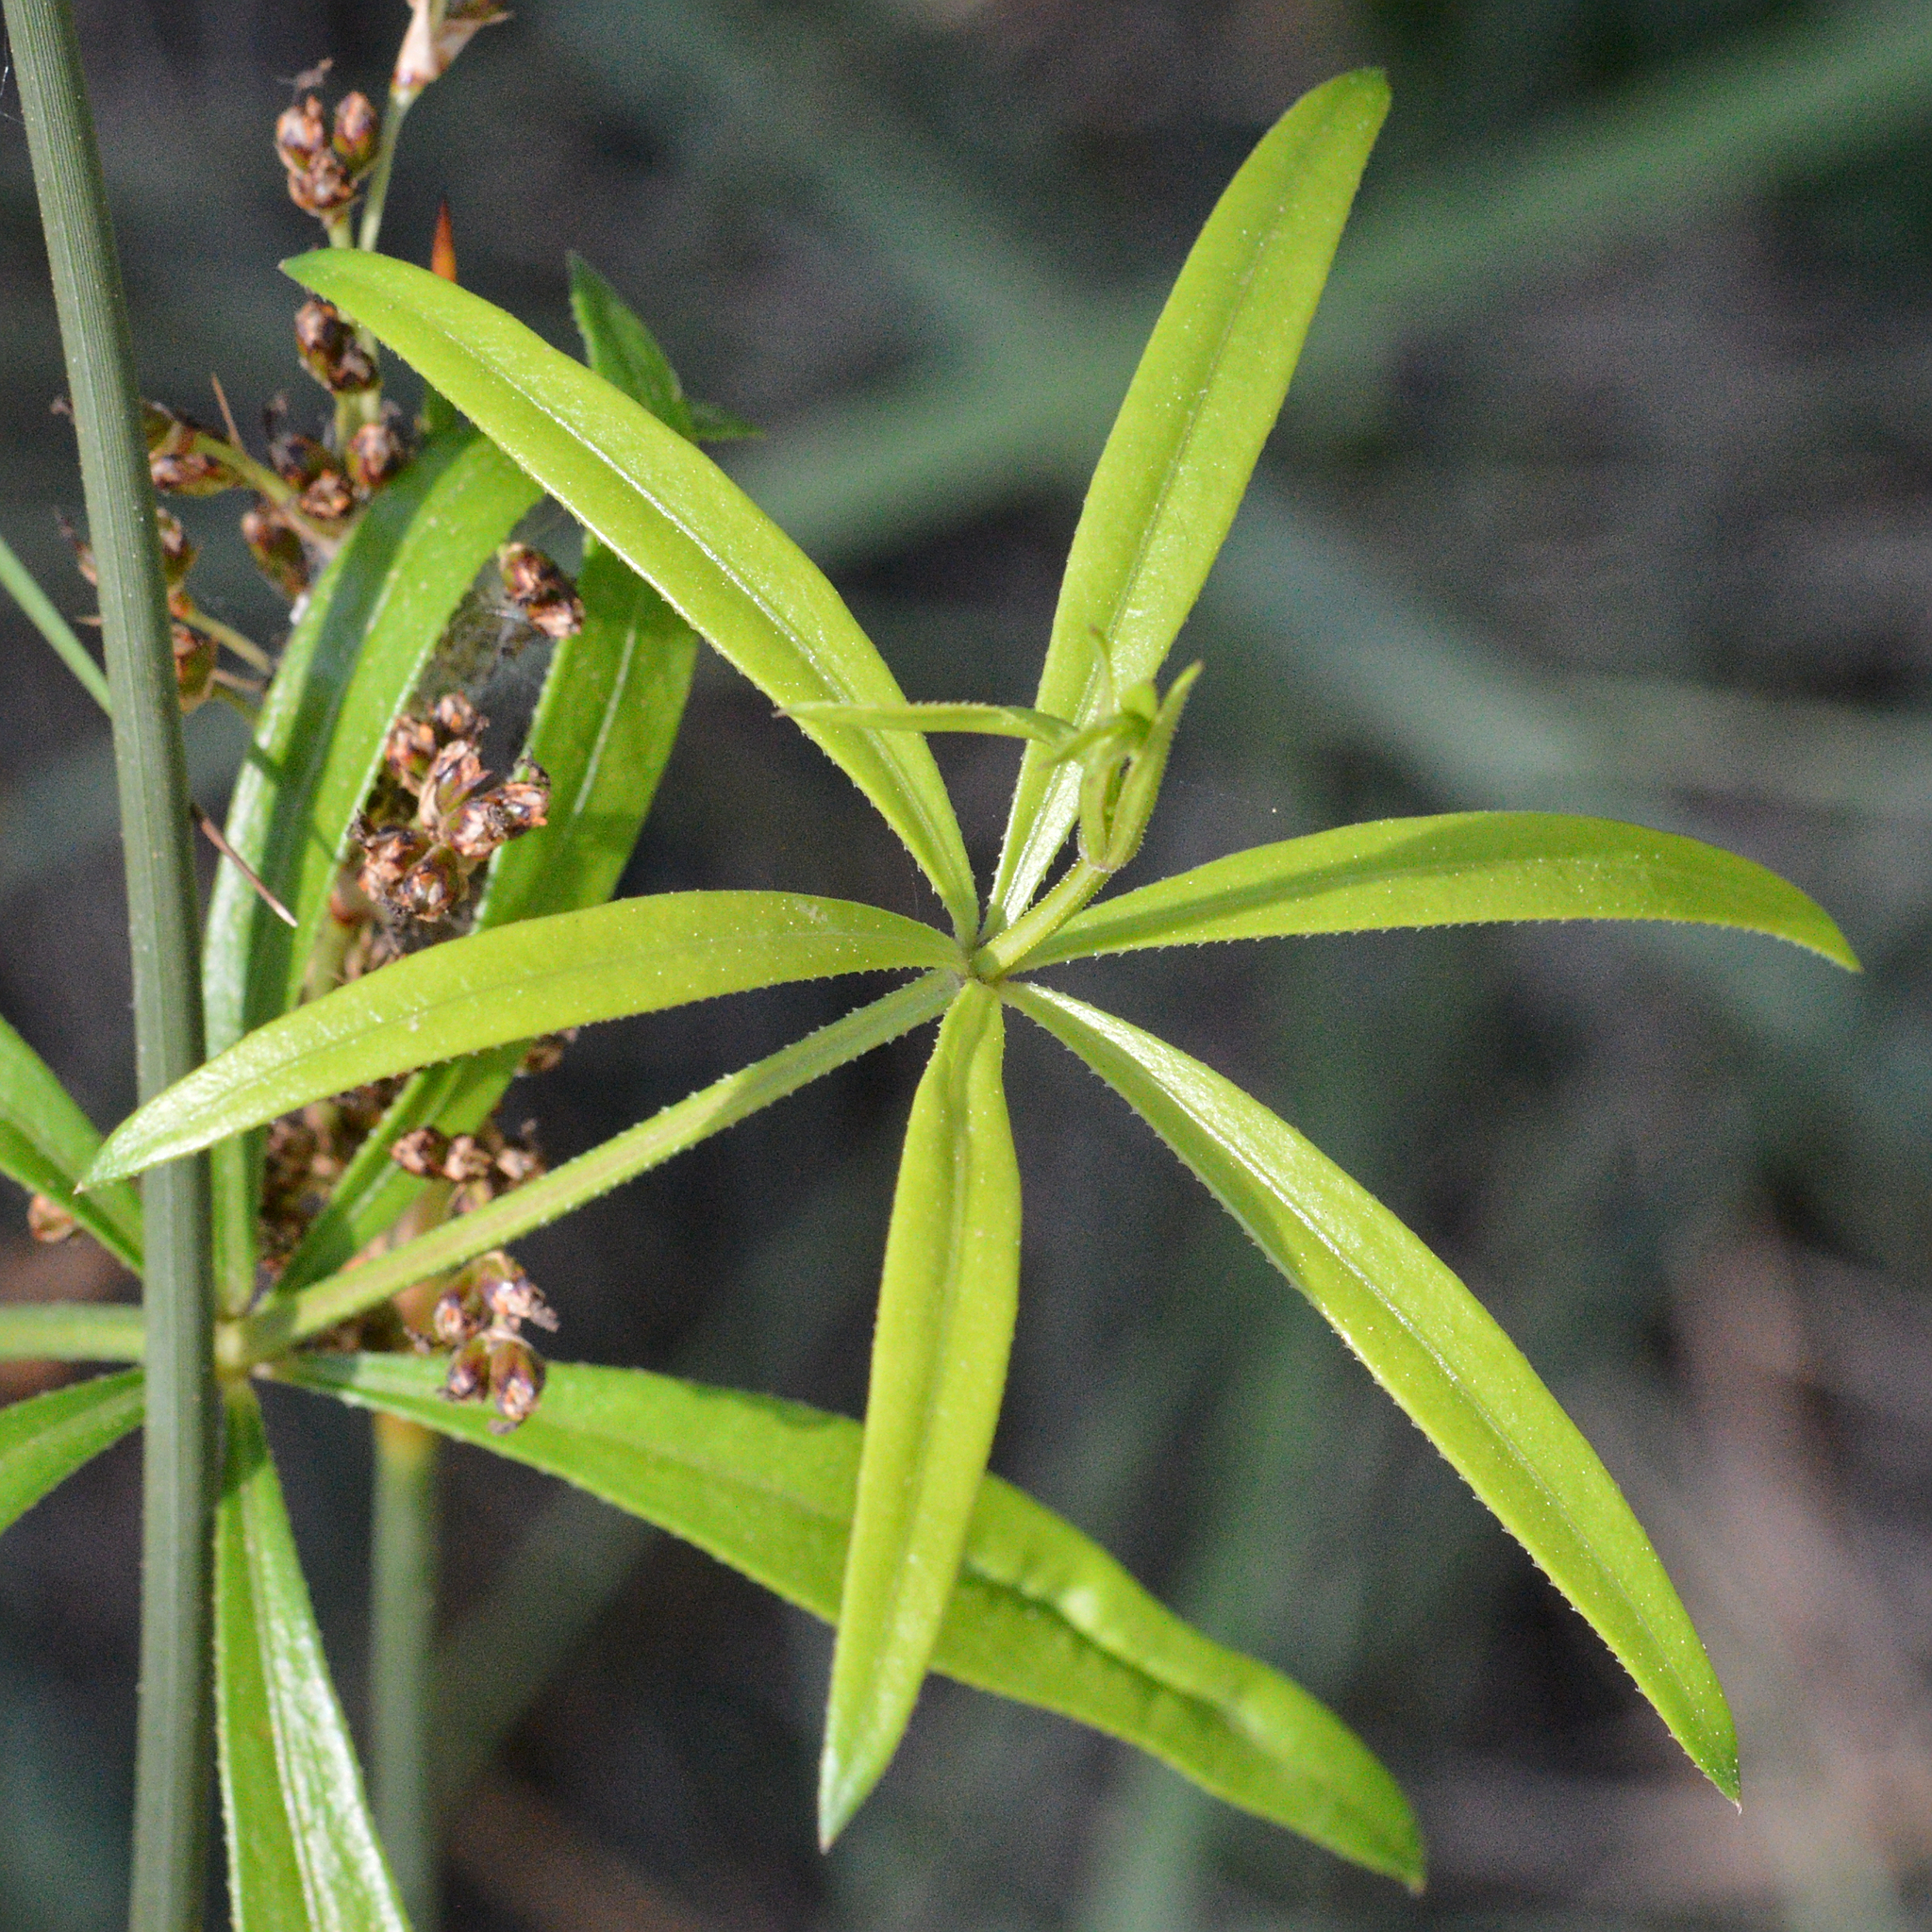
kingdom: Plantae
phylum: Tracheophyta
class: Magnoliopsida
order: Gentianales
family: Rubiaceae
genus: Rubia
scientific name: Rubia peregrina
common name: Wild madder
